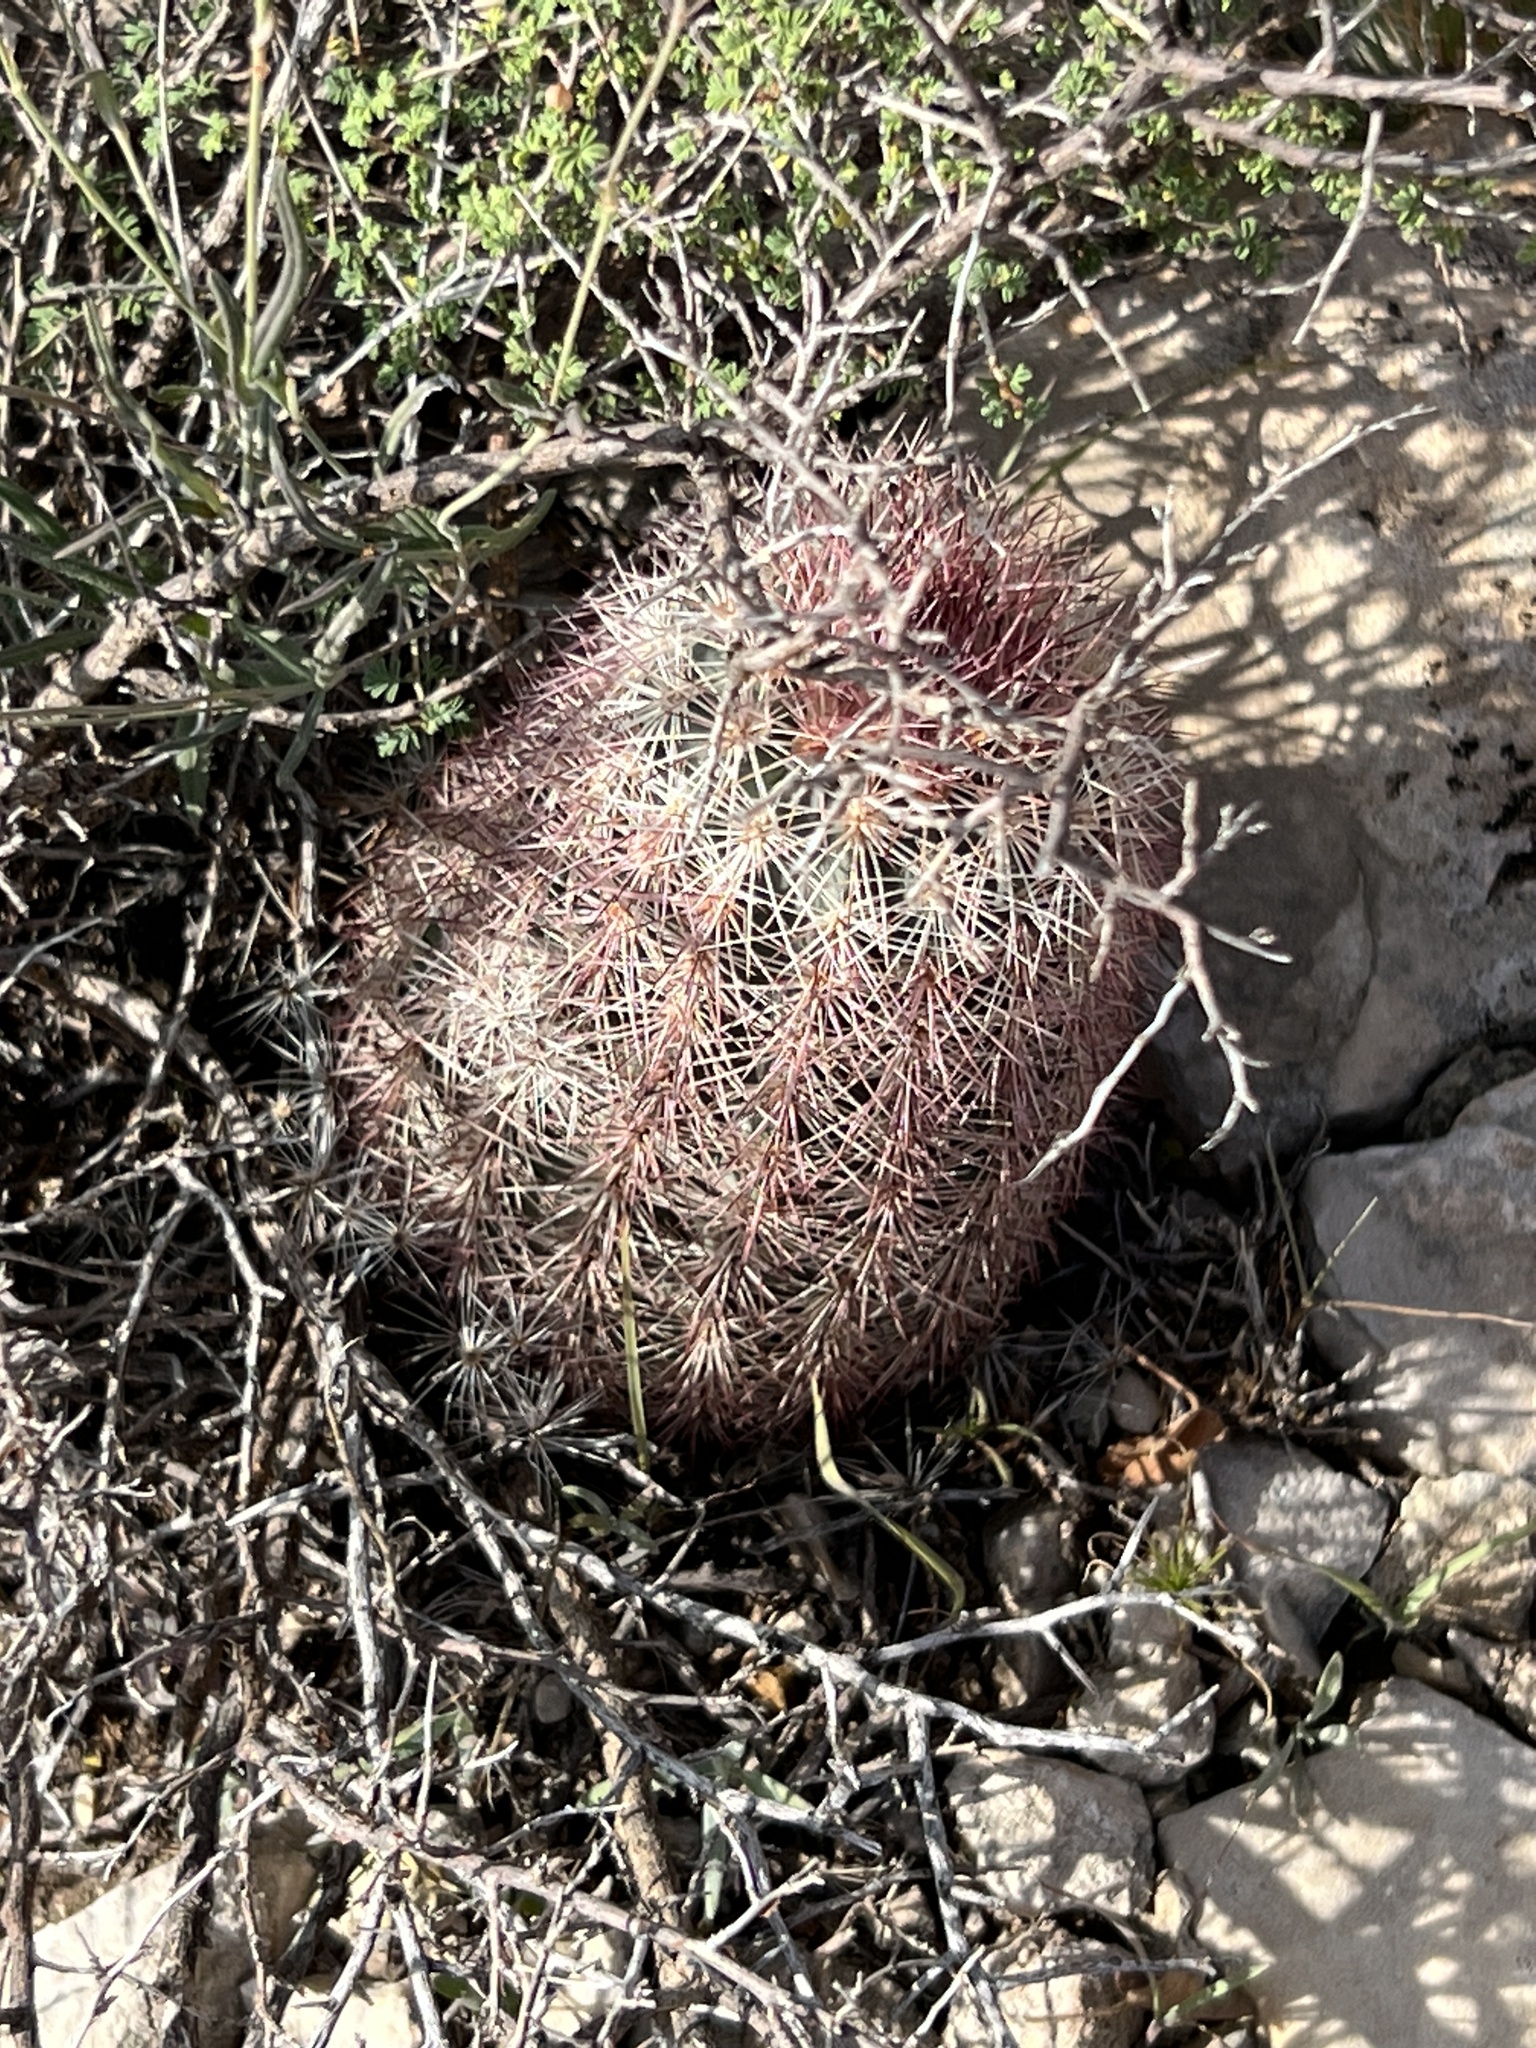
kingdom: Plantae
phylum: Tracheophyta
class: Magnoliopsida
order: Caryophyllales
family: Cactaceae
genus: Echinocereus
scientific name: Echinocereus dasyacanthus
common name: Spiny hedgehog cactus
